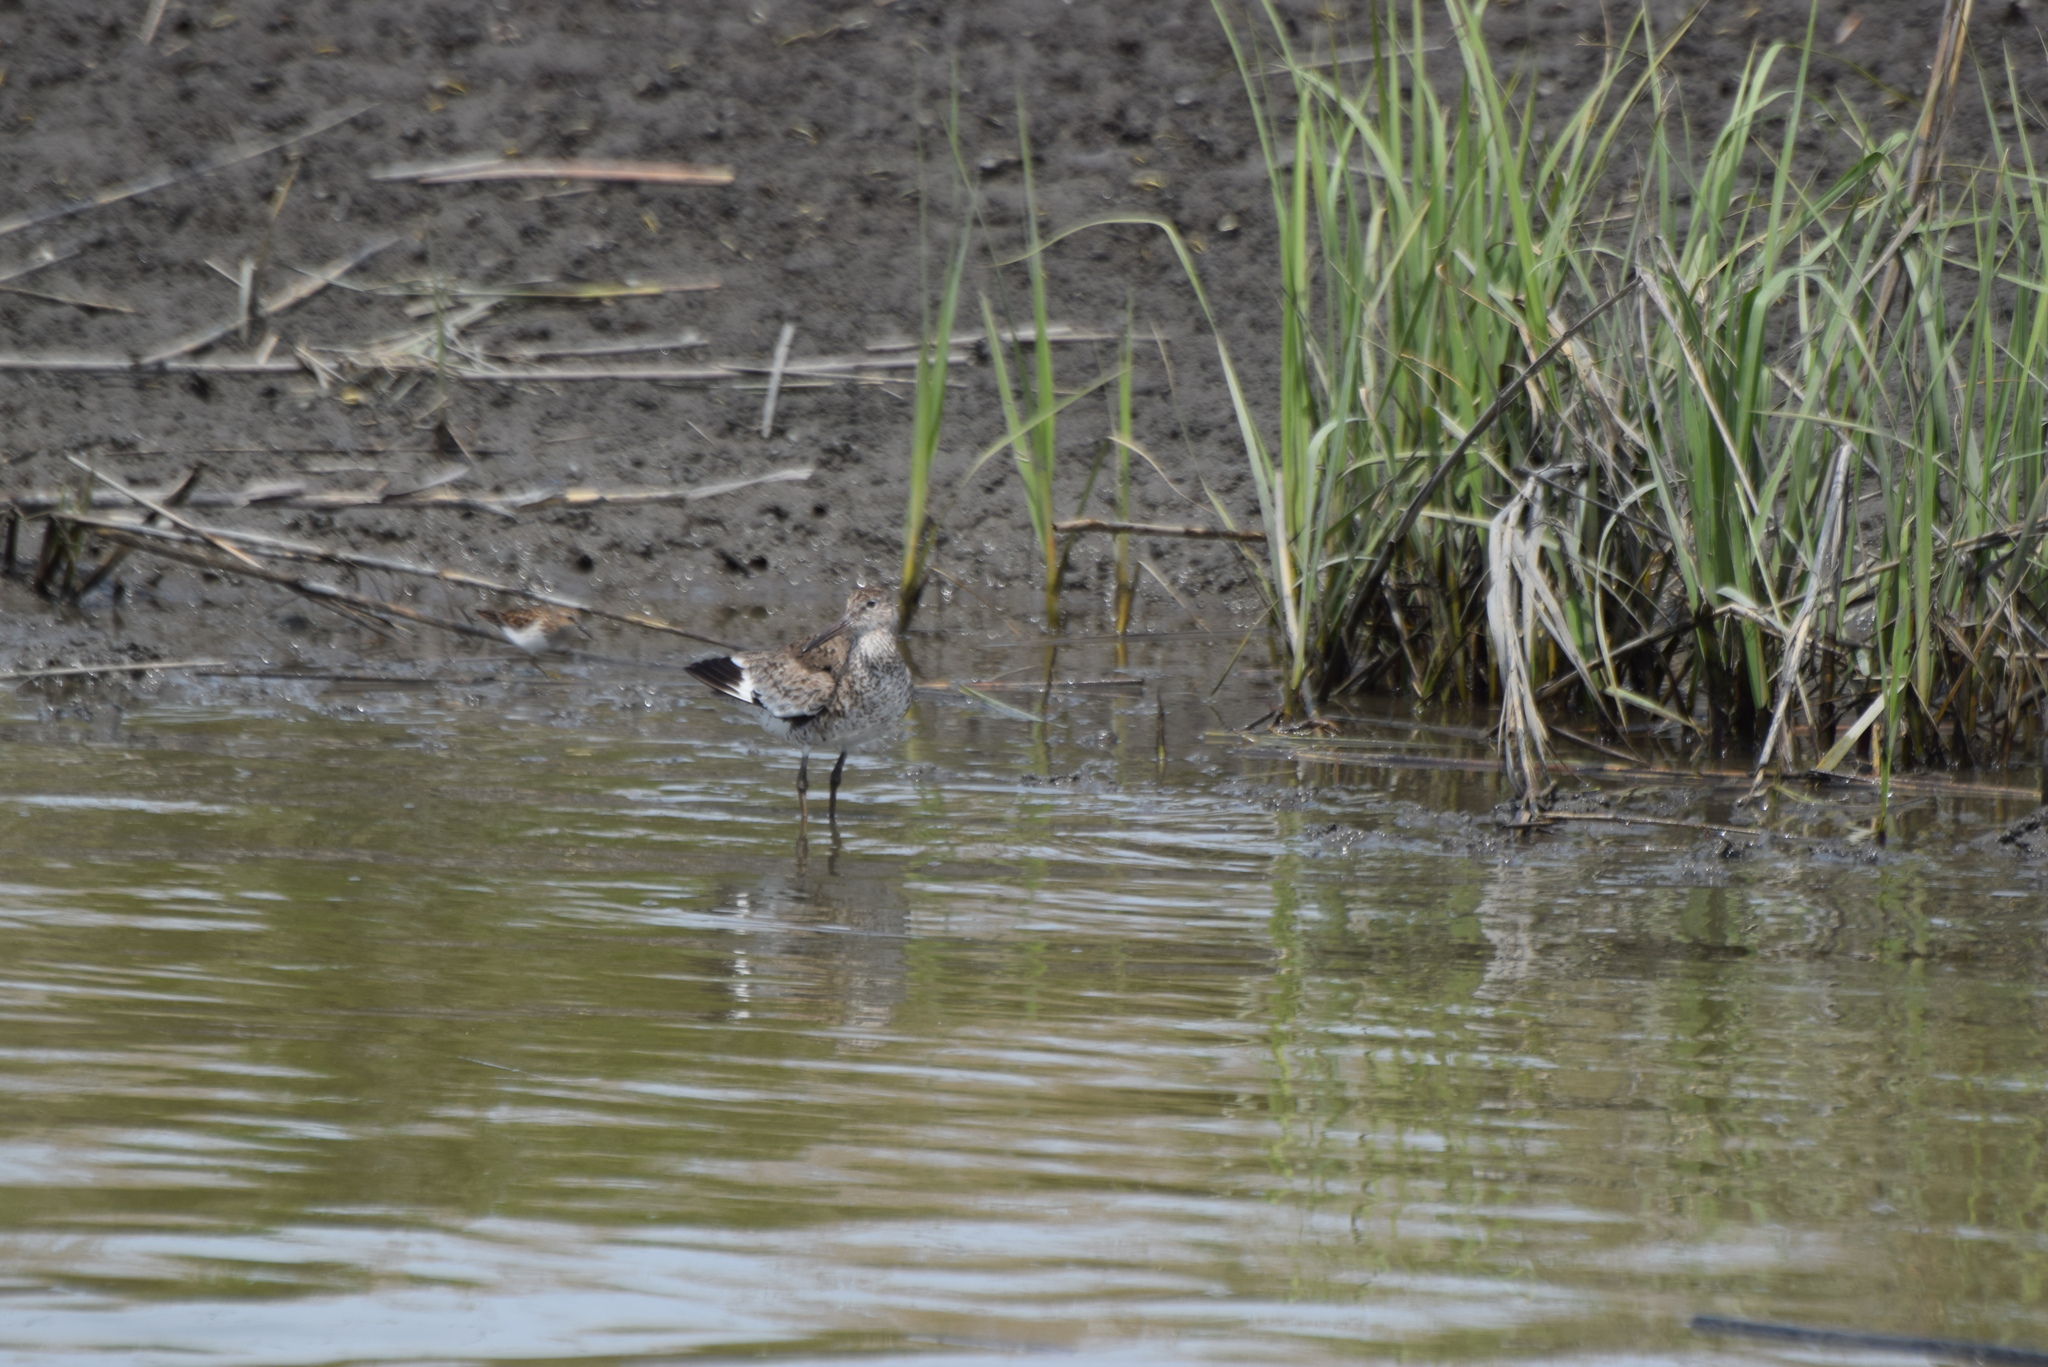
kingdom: Animalia
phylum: Chordata
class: Aves
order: Charadriiformes
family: Scolopacidae
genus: Tringa
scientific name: Tringa semipalmata
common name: Willet
